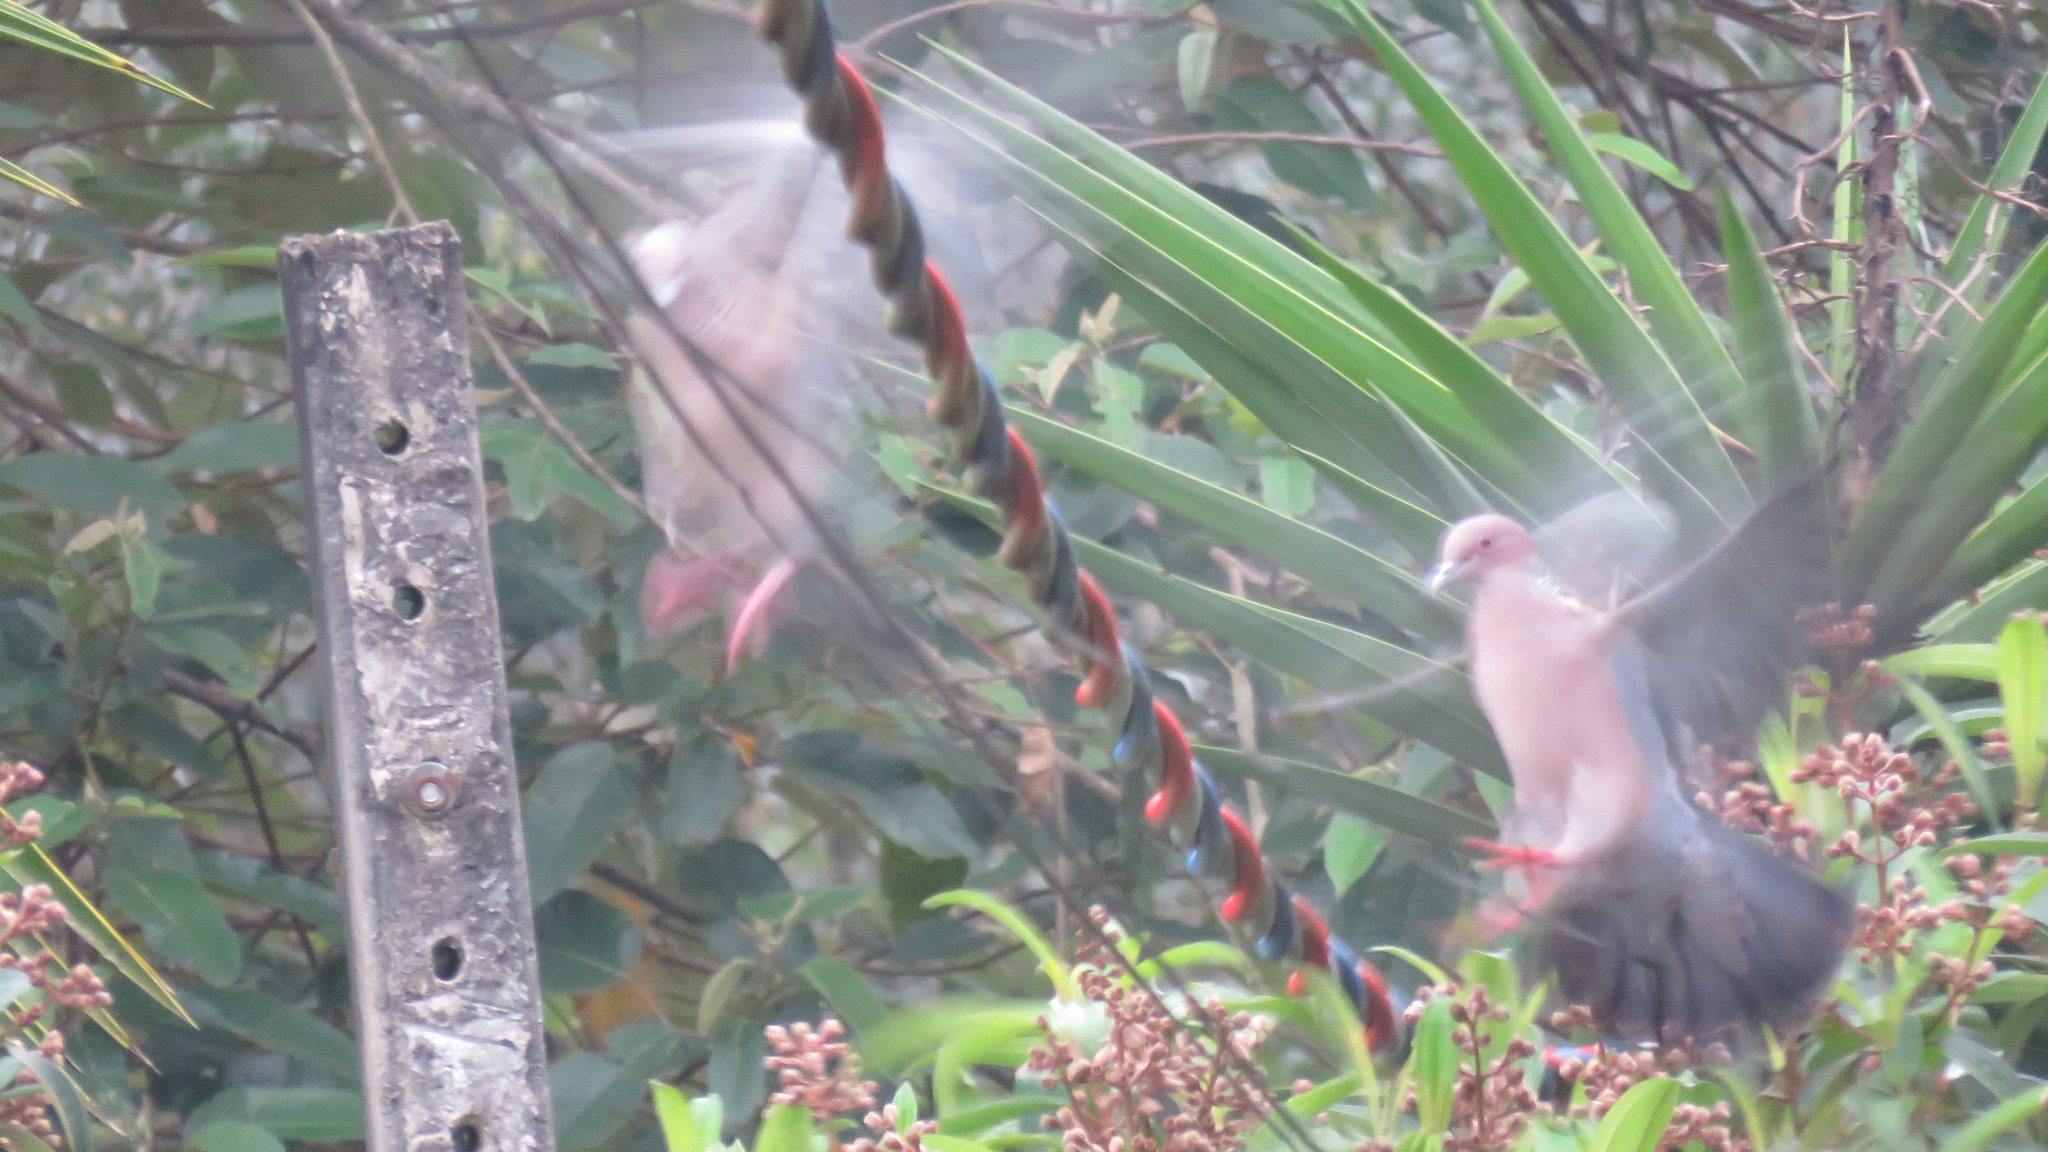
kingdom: Animalia
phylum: Chordata
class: Aves
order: Columbiformes
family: Columbidae
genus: Patagioenas
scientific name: Patagioenas picazuro
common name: Picazuro pigeon
